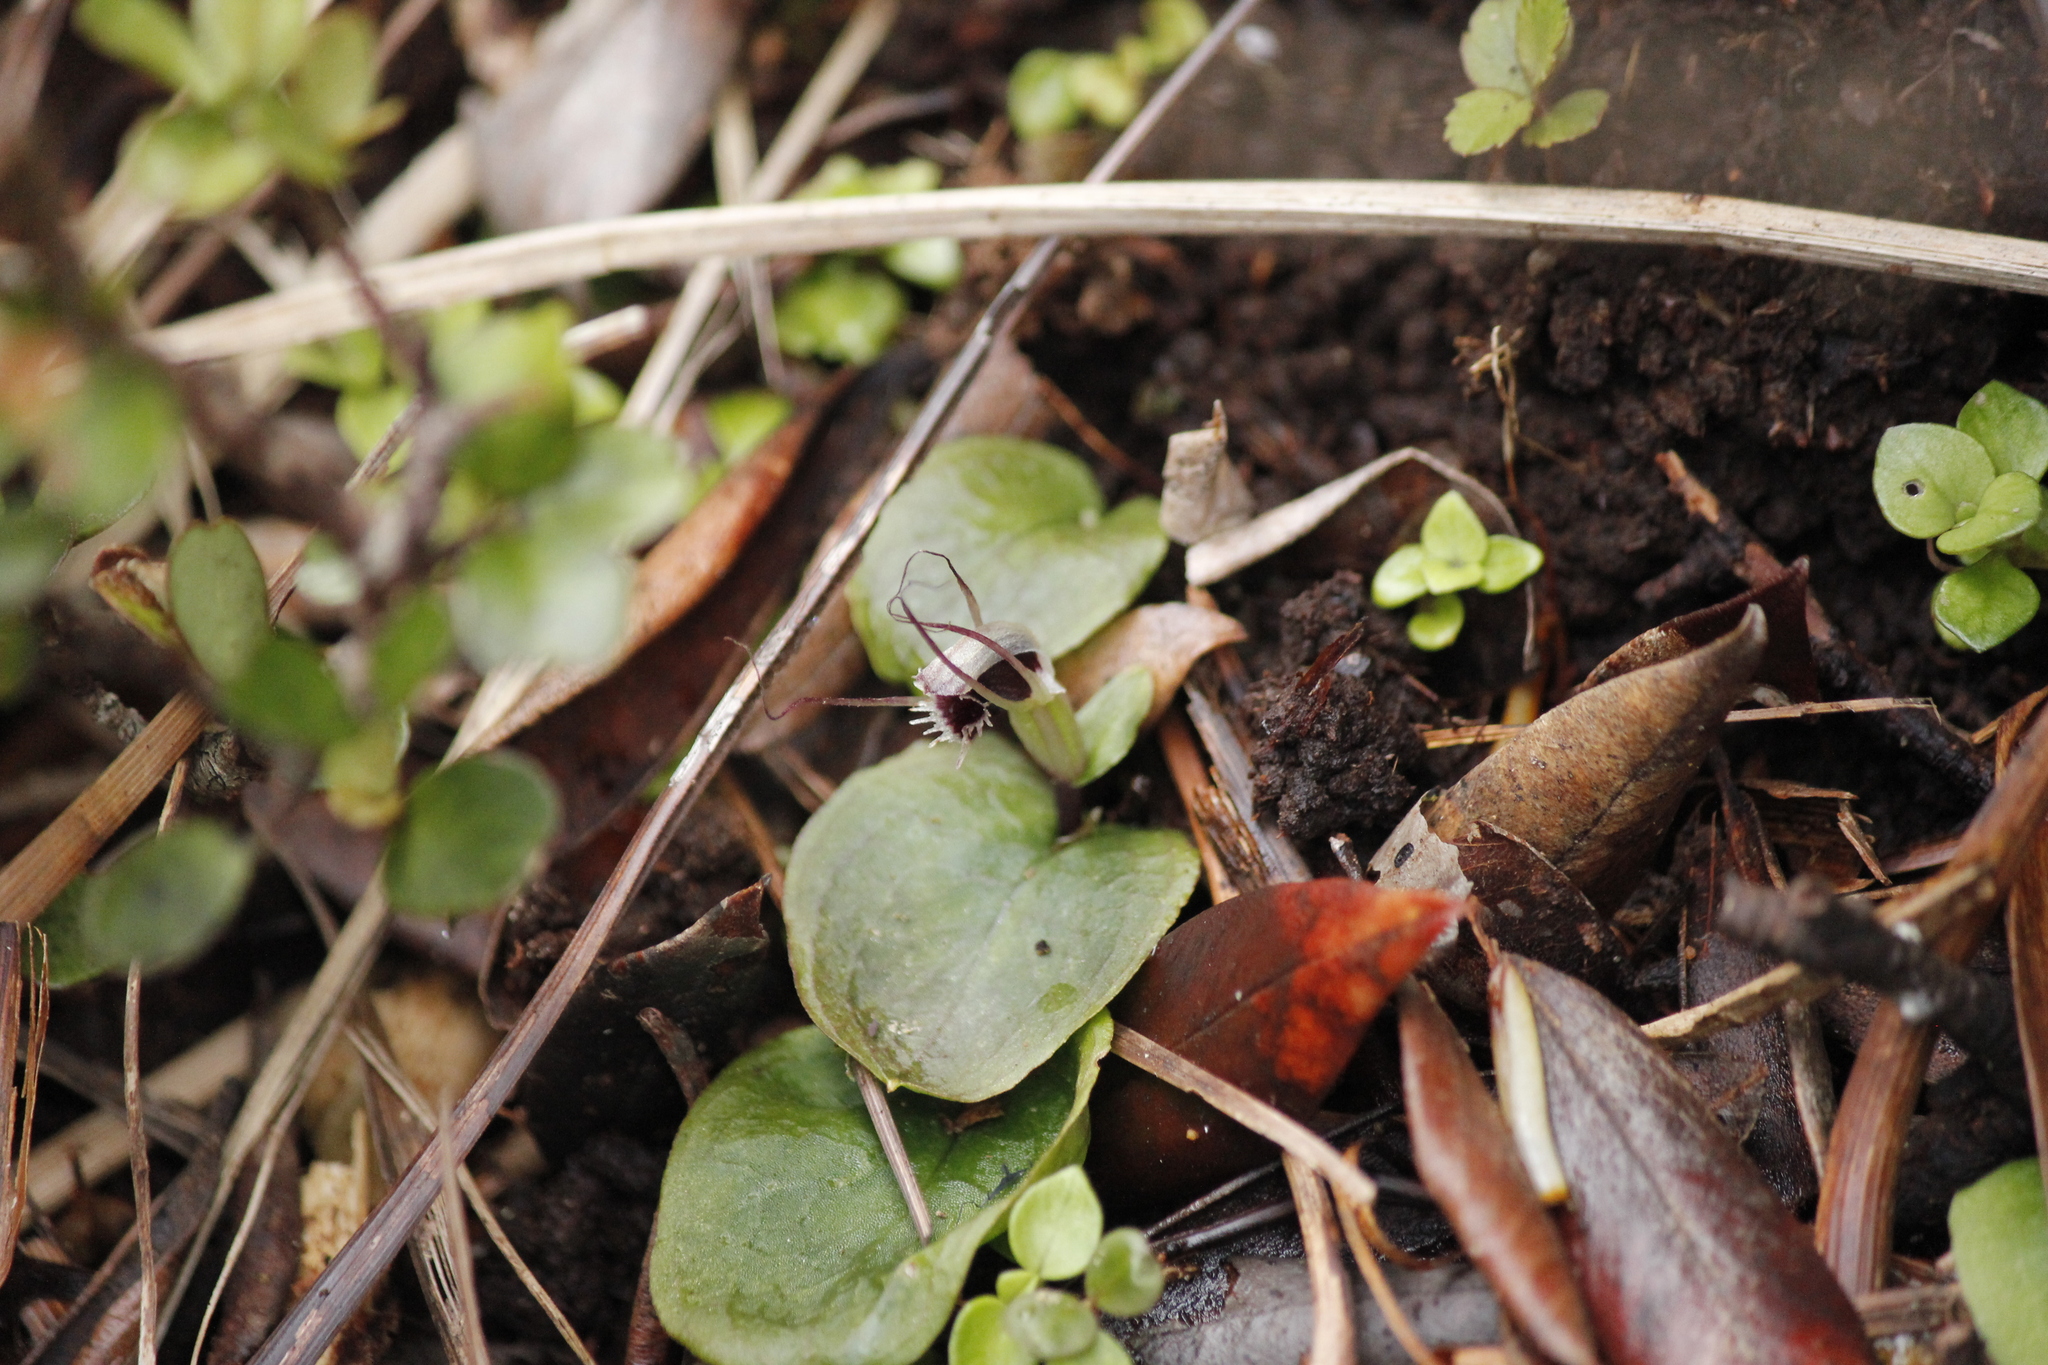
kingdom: Plantae
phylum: Tracheophyta
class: Liliopsida
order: Asparagales
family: Orchidaceae
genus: Corybas
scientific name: Corybas oblongus
